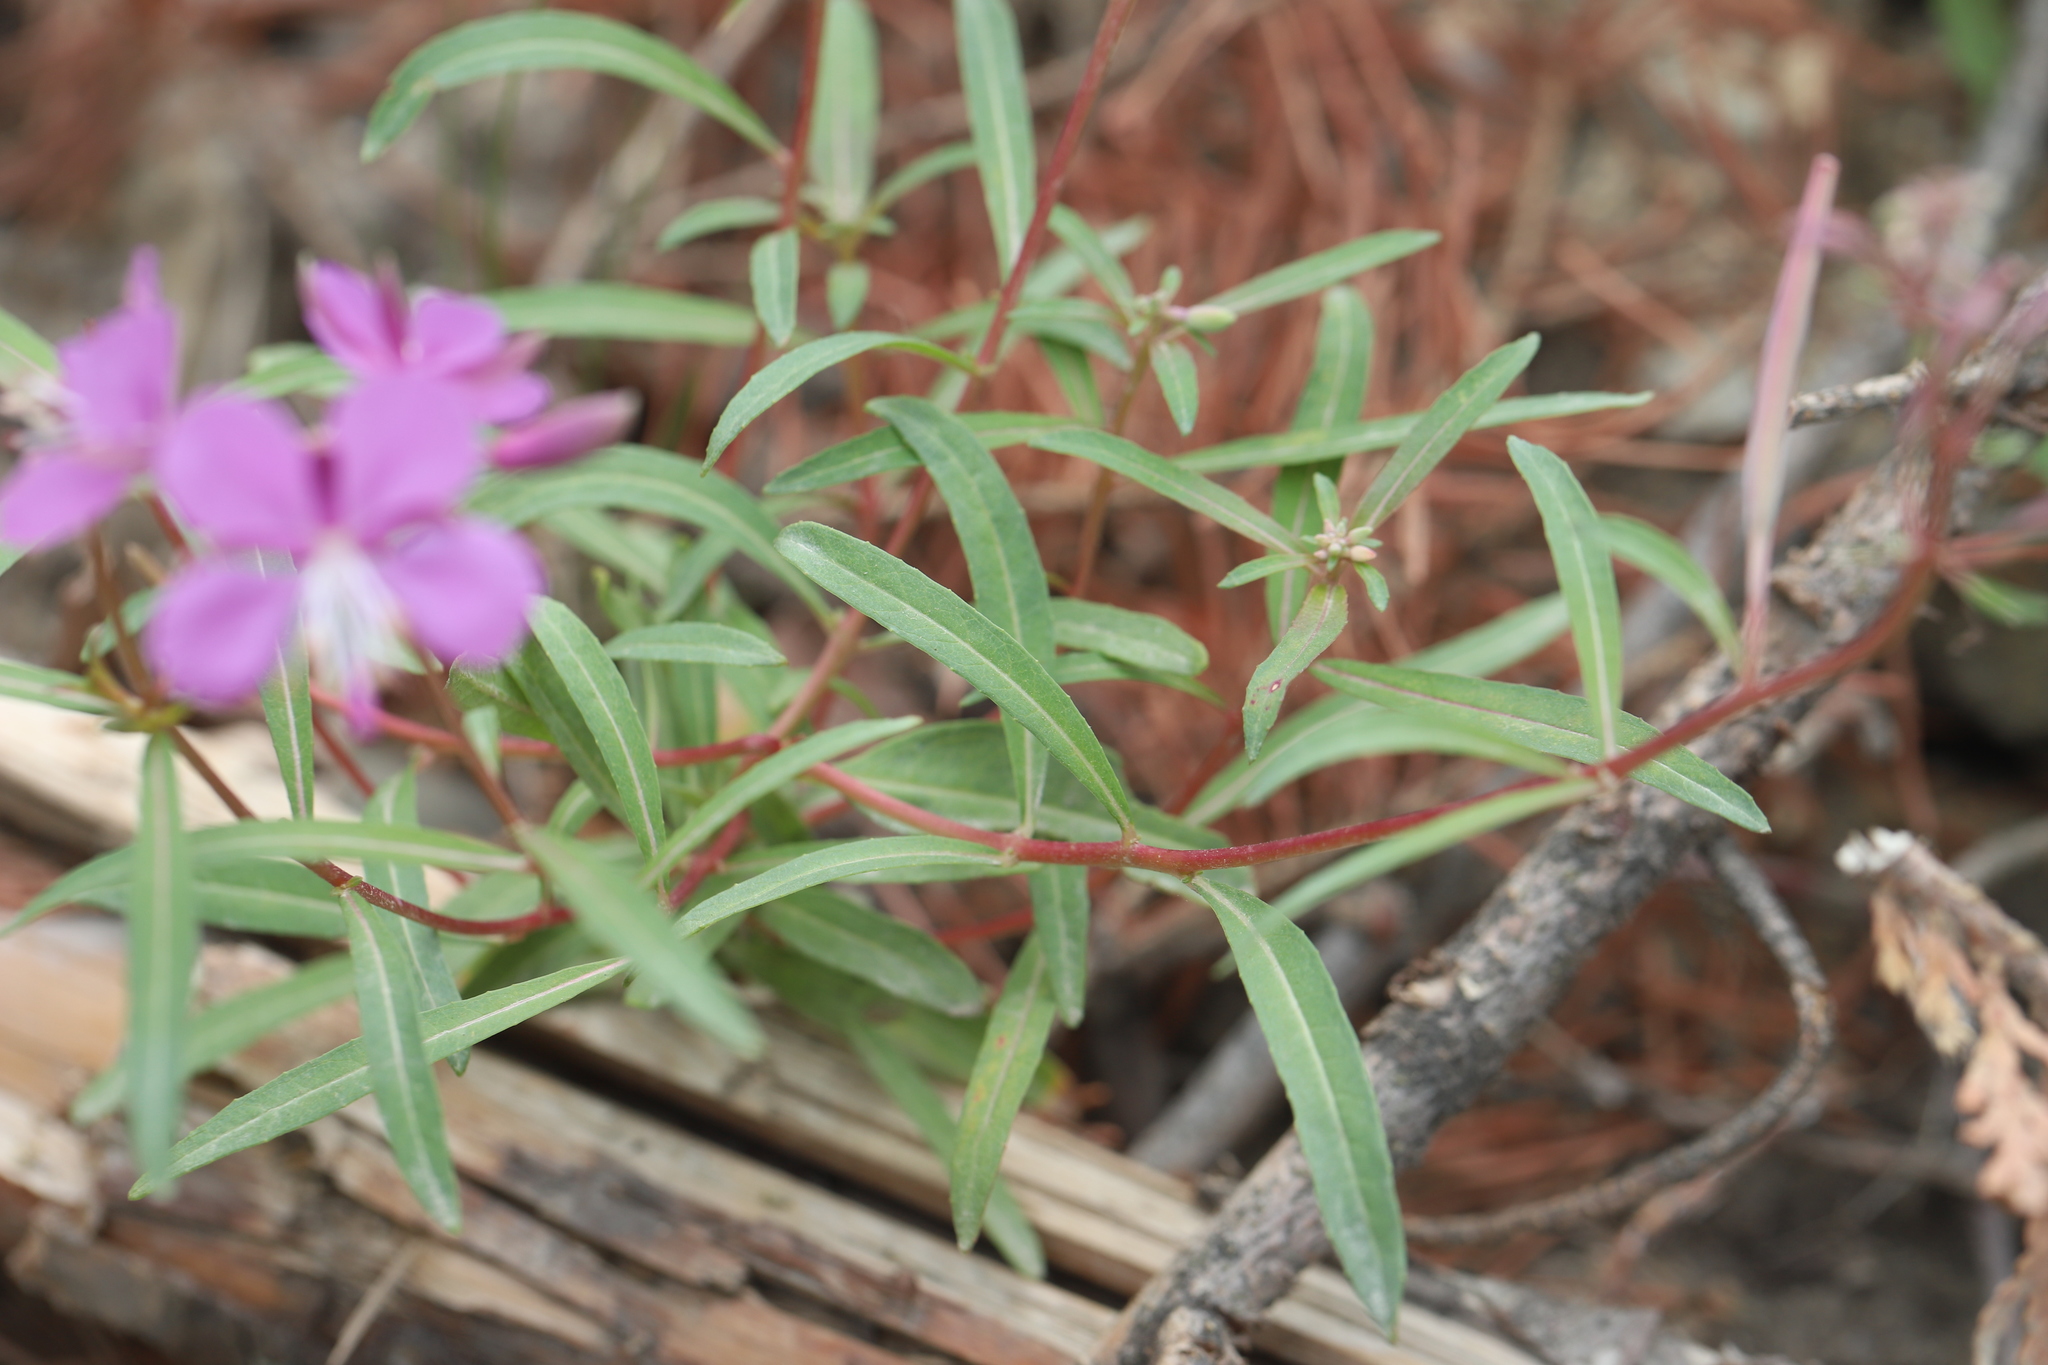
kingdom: Plantae
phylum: Tracheophyta
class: Magnoliopsida
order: Myrtales
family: Onagraceae
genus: Chamaenerion
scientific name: Chamaenerion angustifolium
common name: Fireweed
